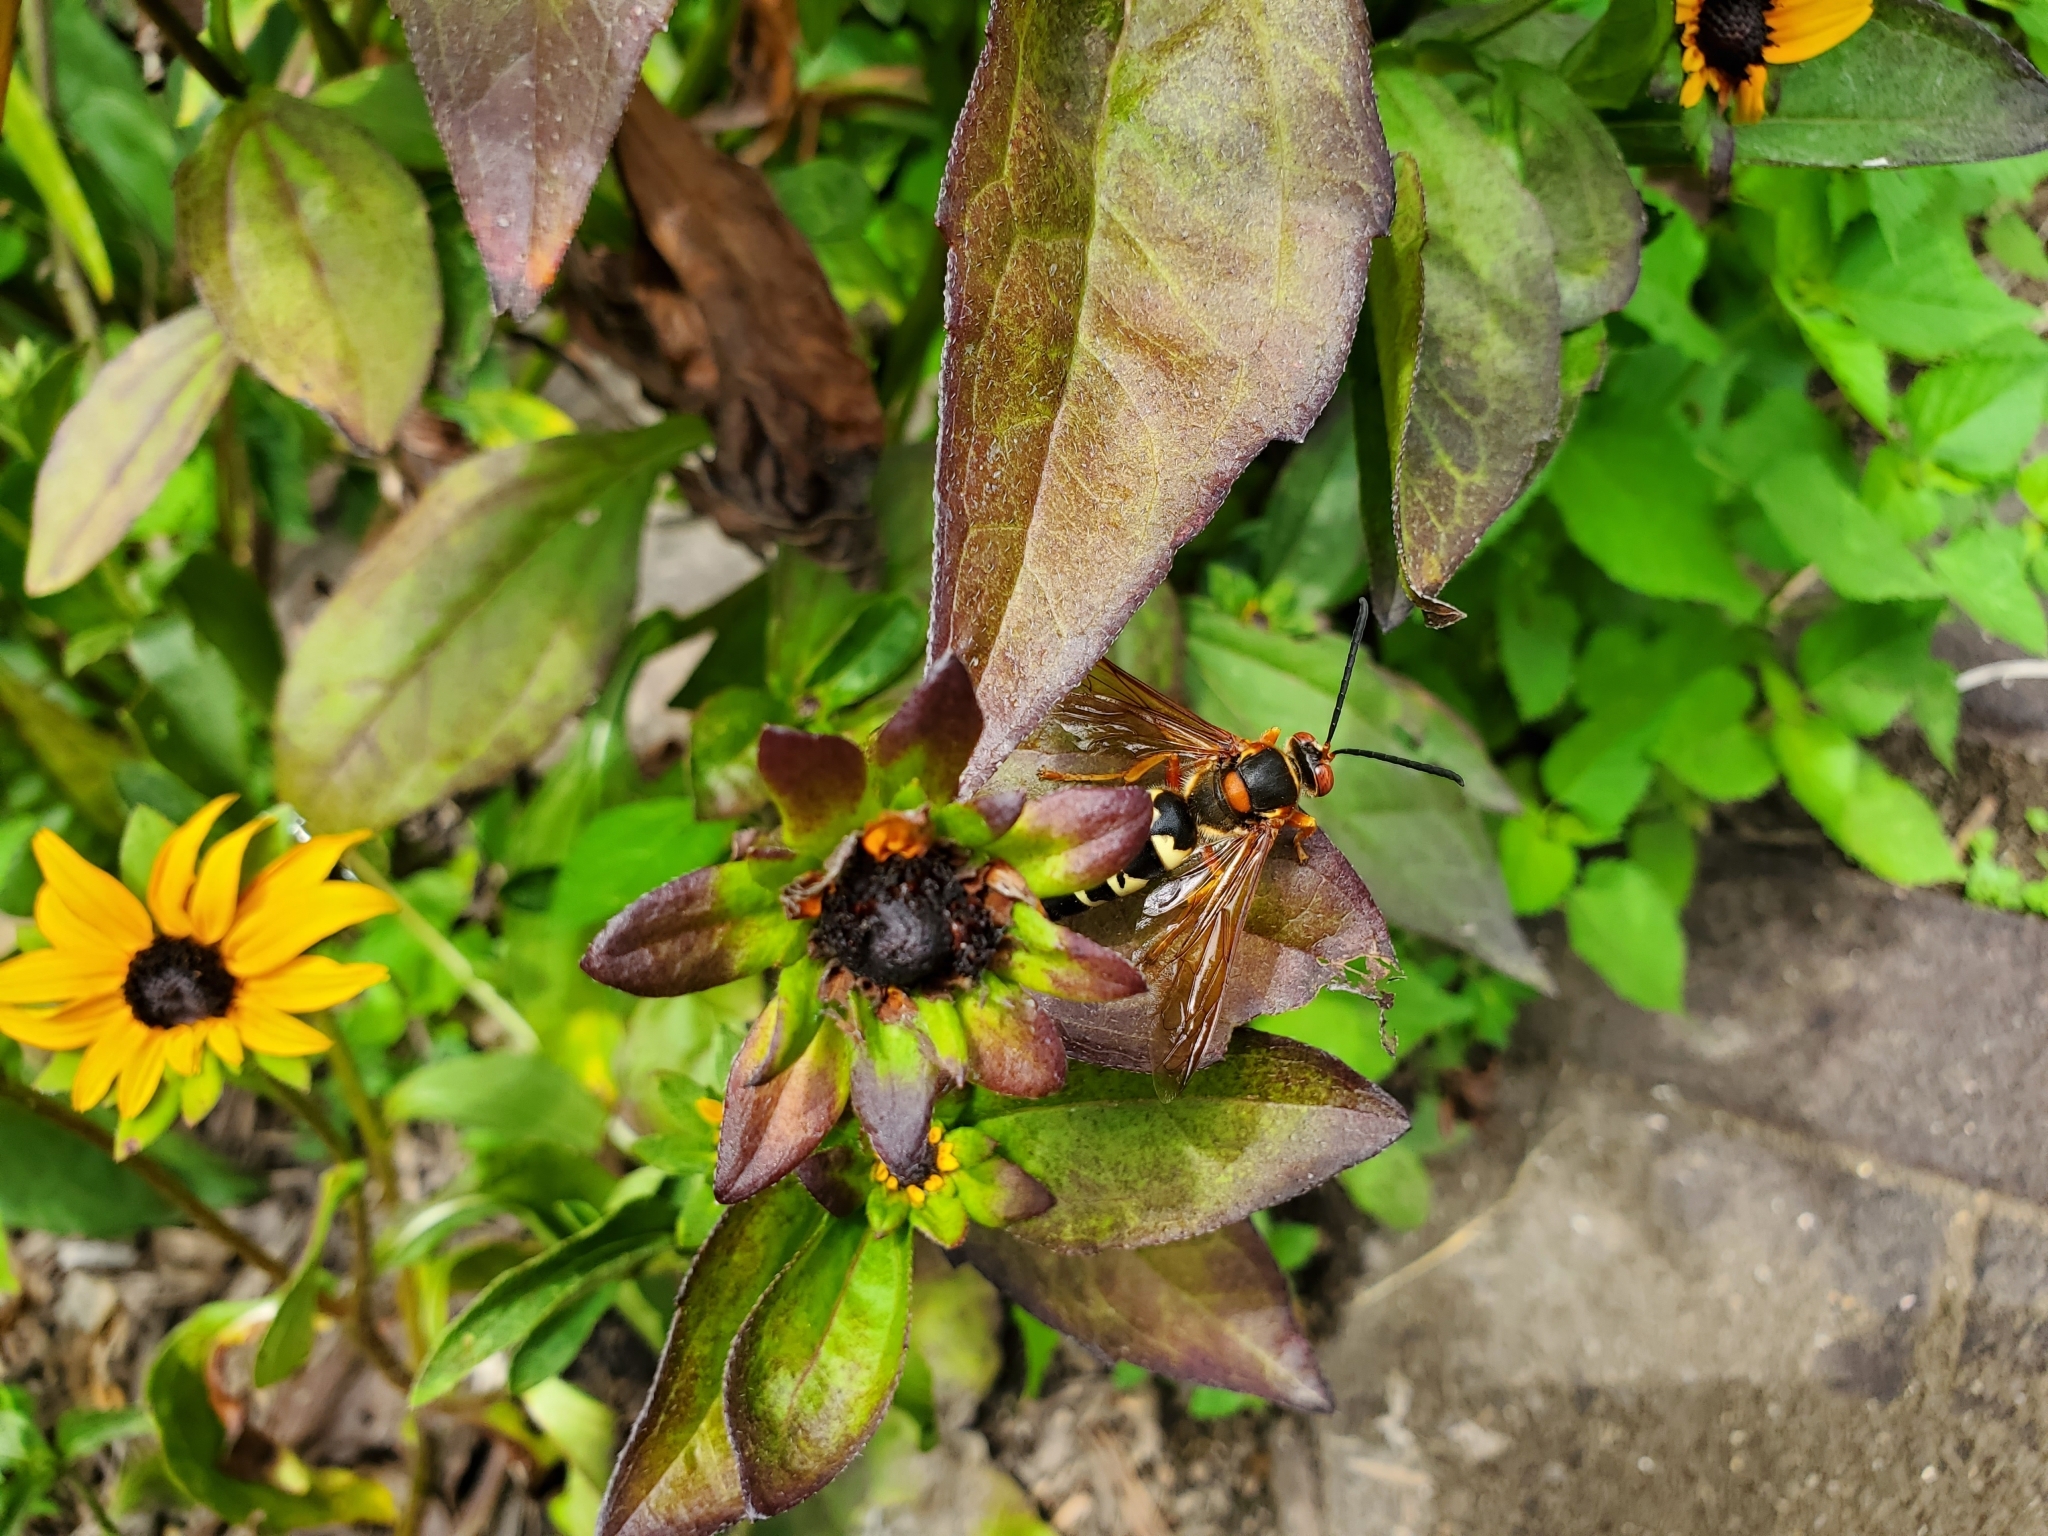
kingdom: Animalia
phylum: Arthropoda
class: Insecta
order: Hymenoptera
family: Crabronidae
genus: Sphecius
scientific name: Sphecius speciosus
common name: Cicada killer
